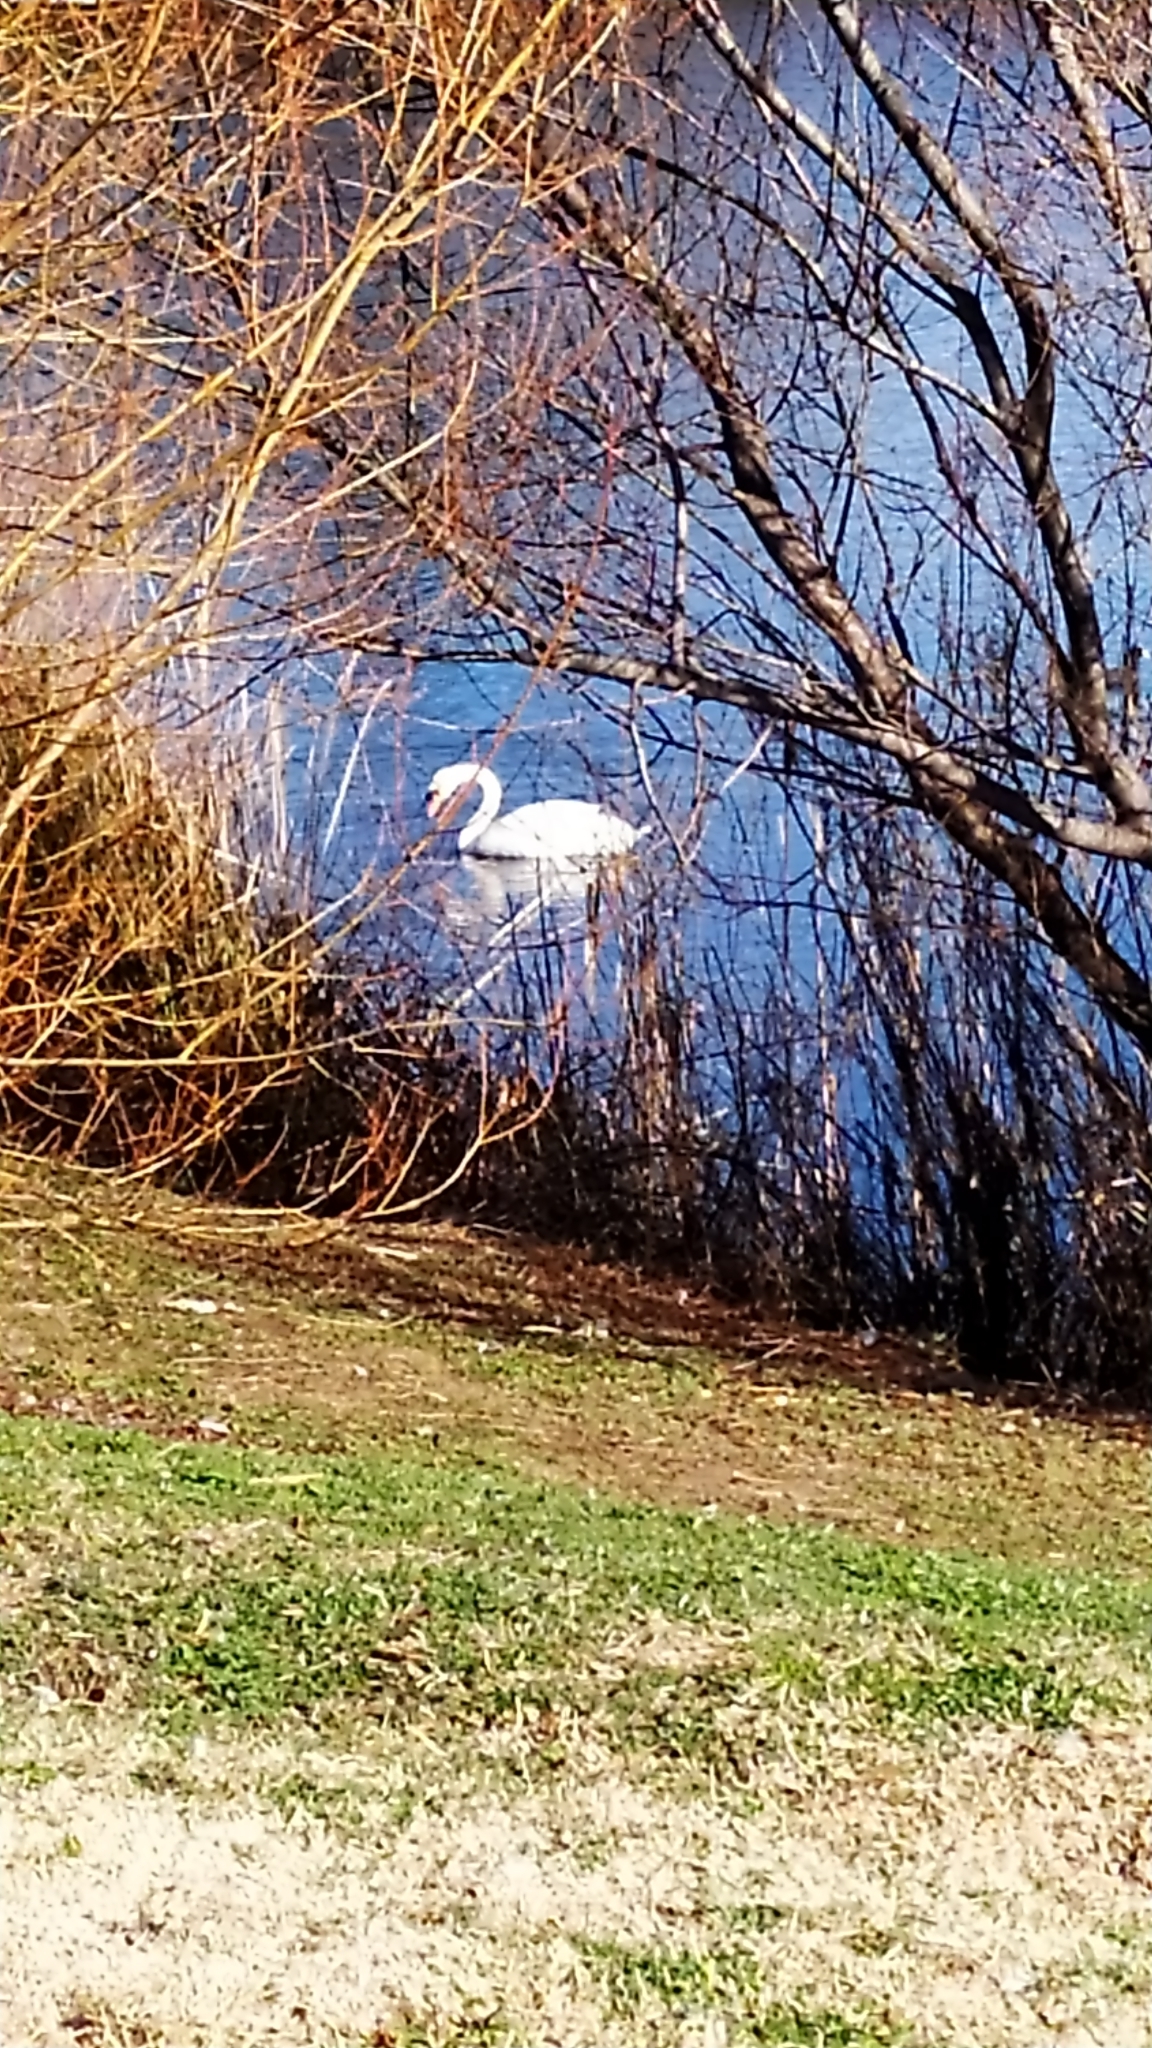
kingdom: Animalia
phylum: Chordata
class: Aves
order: Anseriformes
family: Anatidae
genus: Cygnus
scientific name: Cygnus olor
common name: Mute swan
